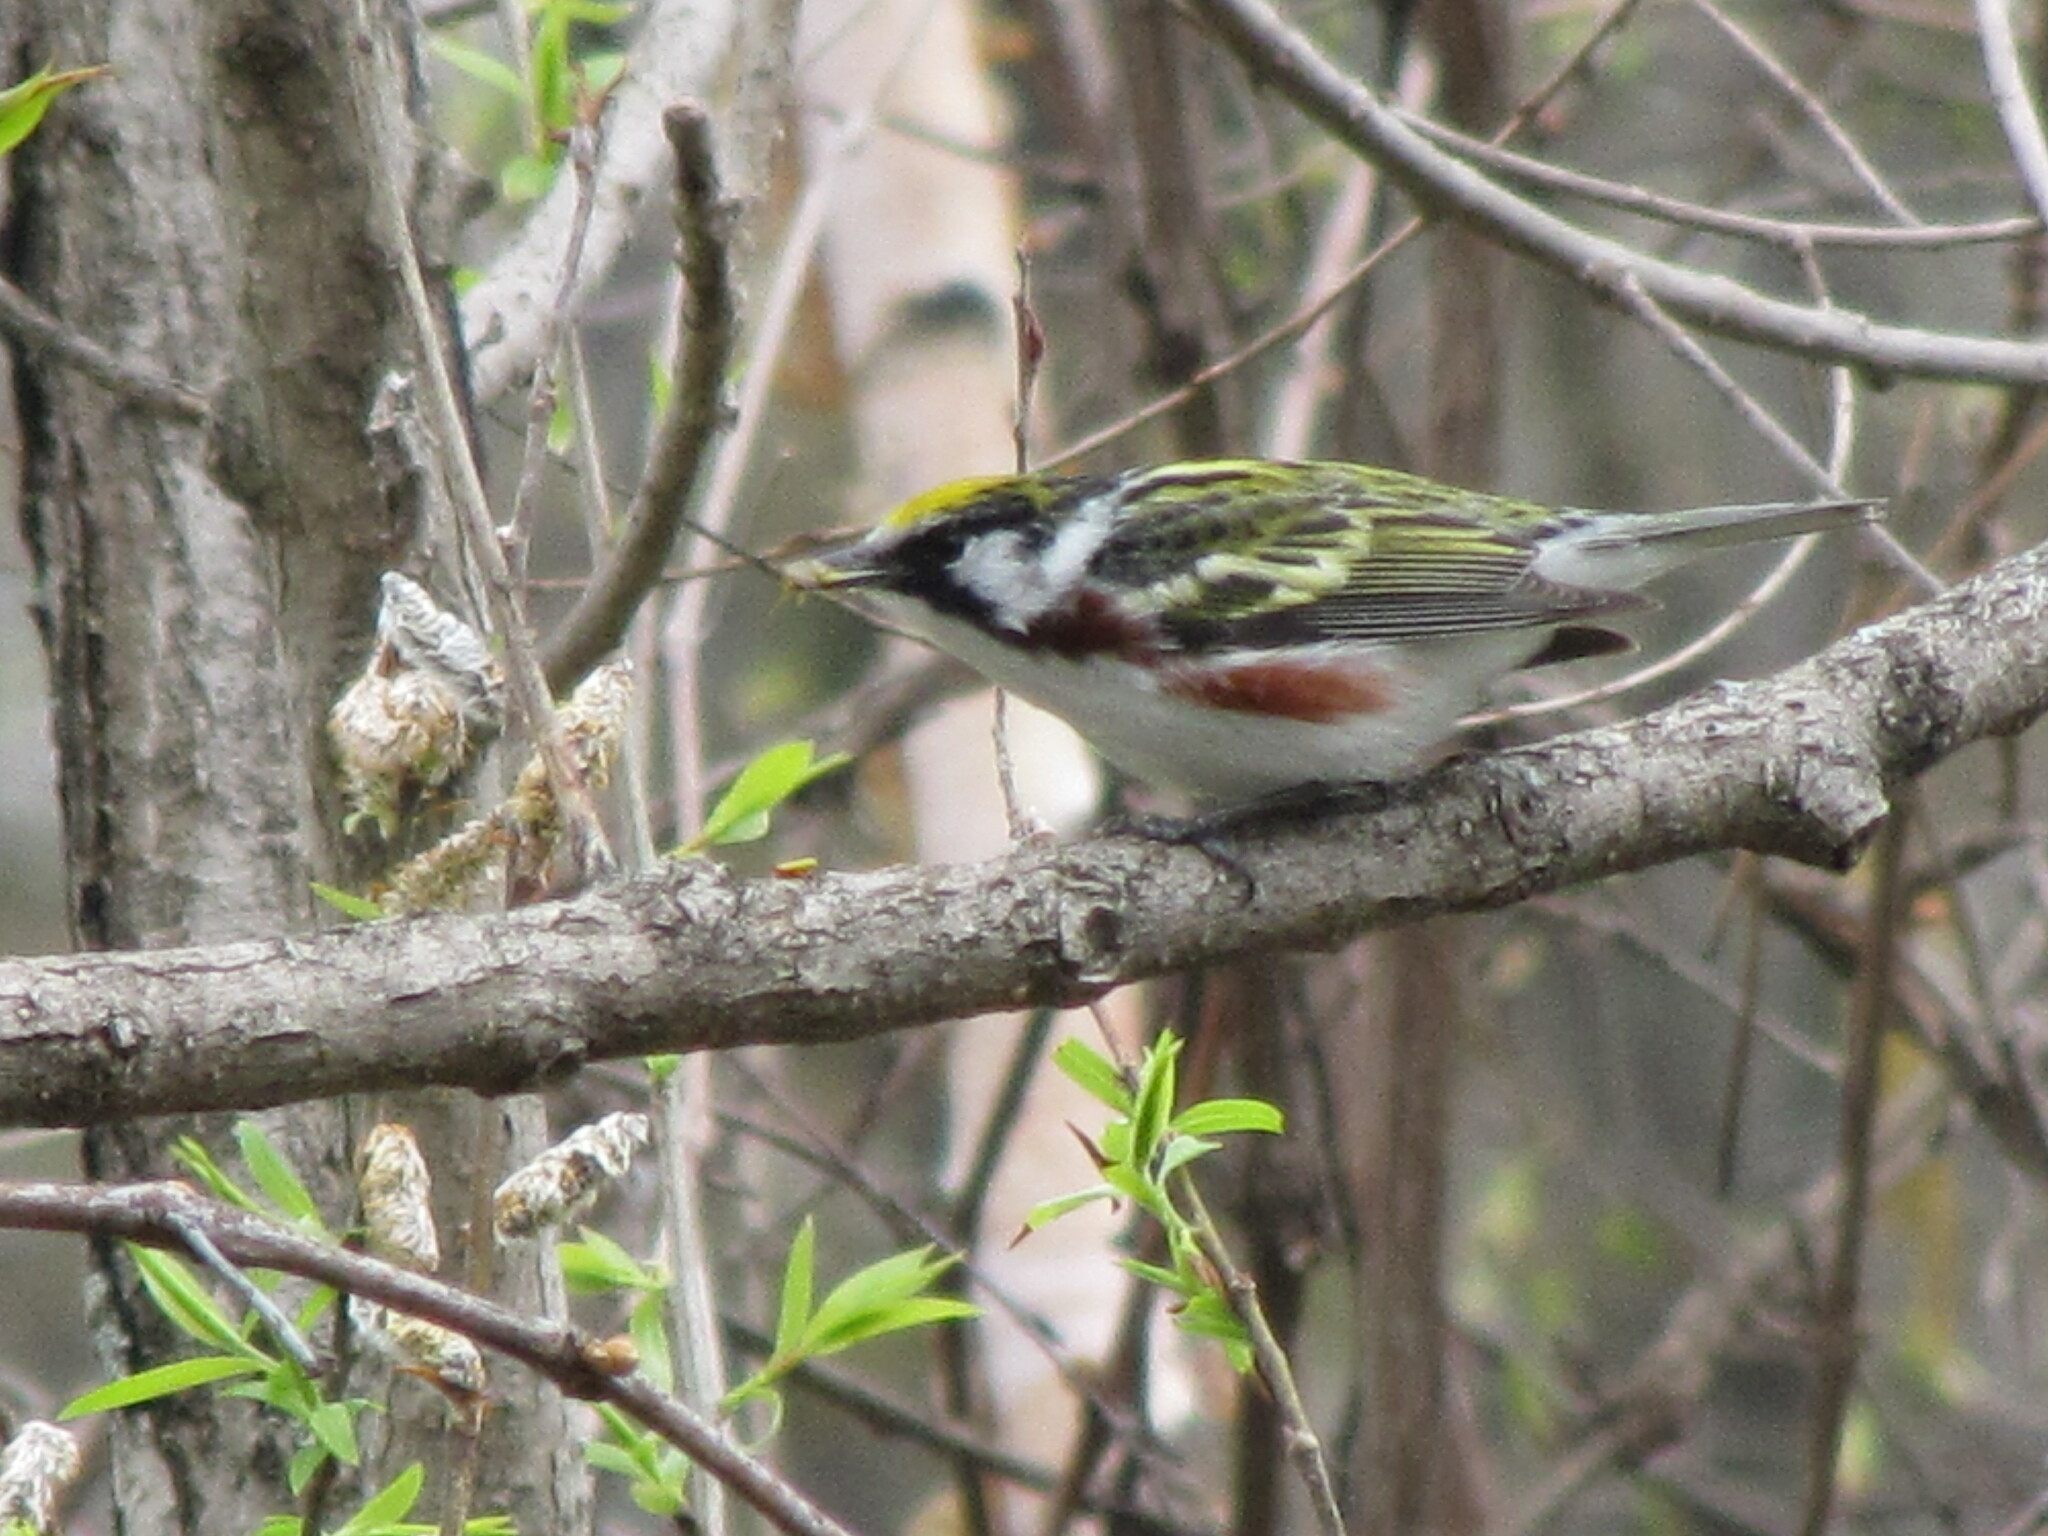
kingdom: Animalia
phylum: Chordata
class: Aves
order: Passeriformes
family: Parulidae
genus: Setophaga
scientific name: Setophaga pensylvanica
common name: Chestnut-sided warbler
